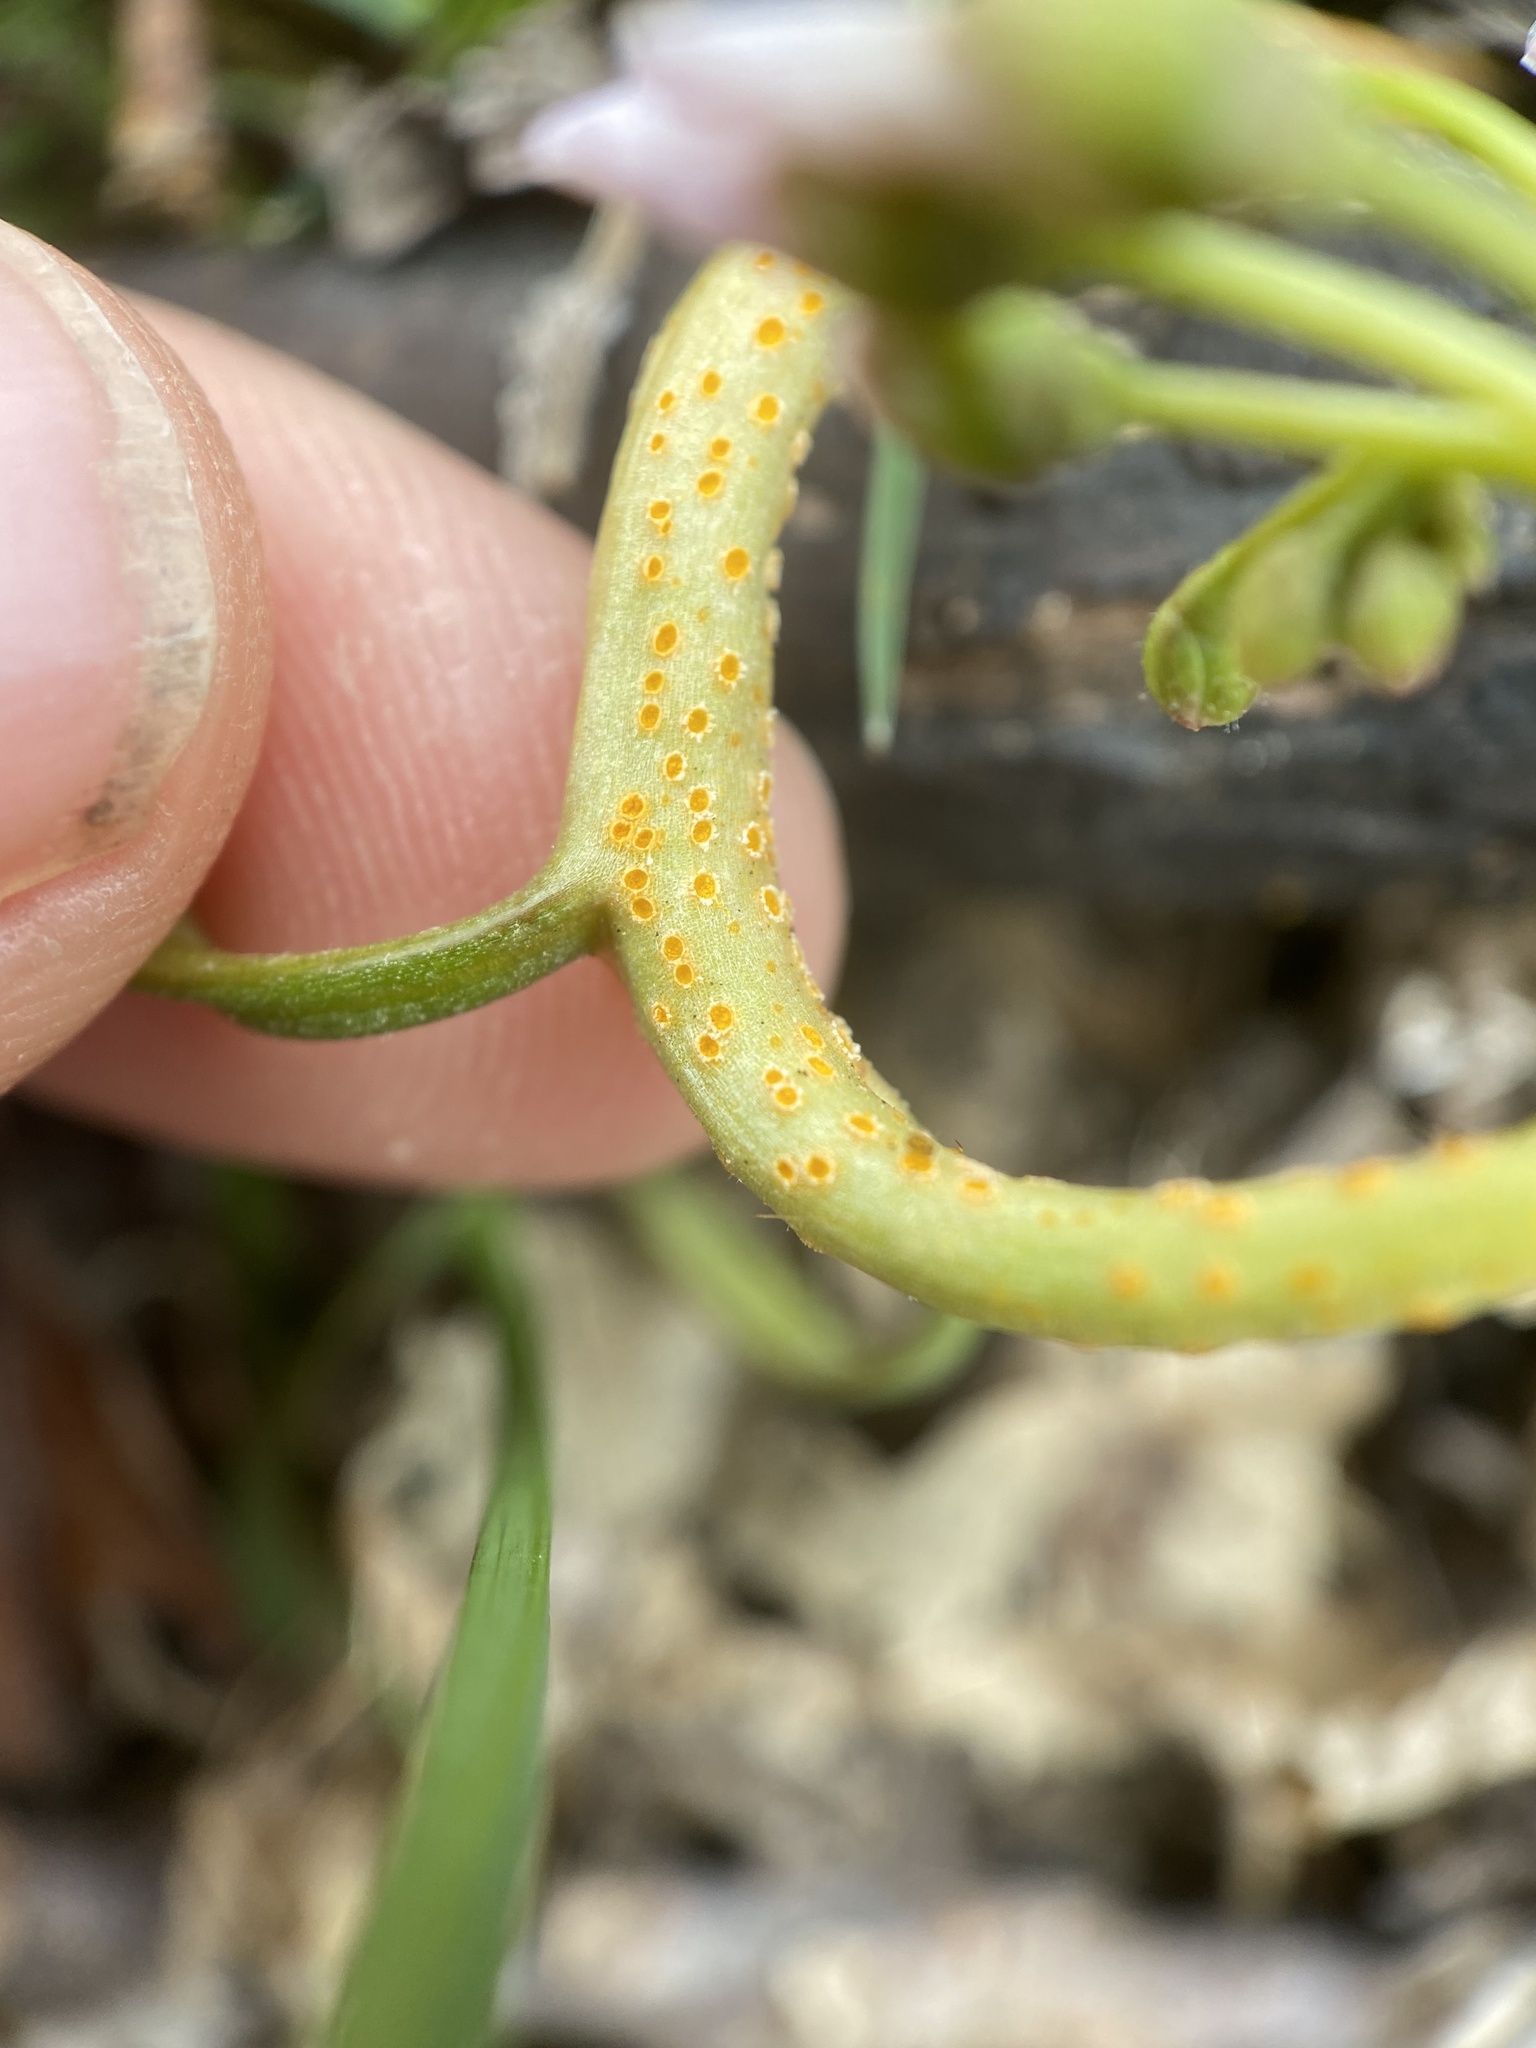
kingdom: Fungi
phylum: Basidiomycota
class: Pucciniomycetes
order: Pucciniales
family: Pucciniaceae
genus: Puccinia
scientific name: Puccinia mariae-wilsoniae
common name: Spring beauty rust
